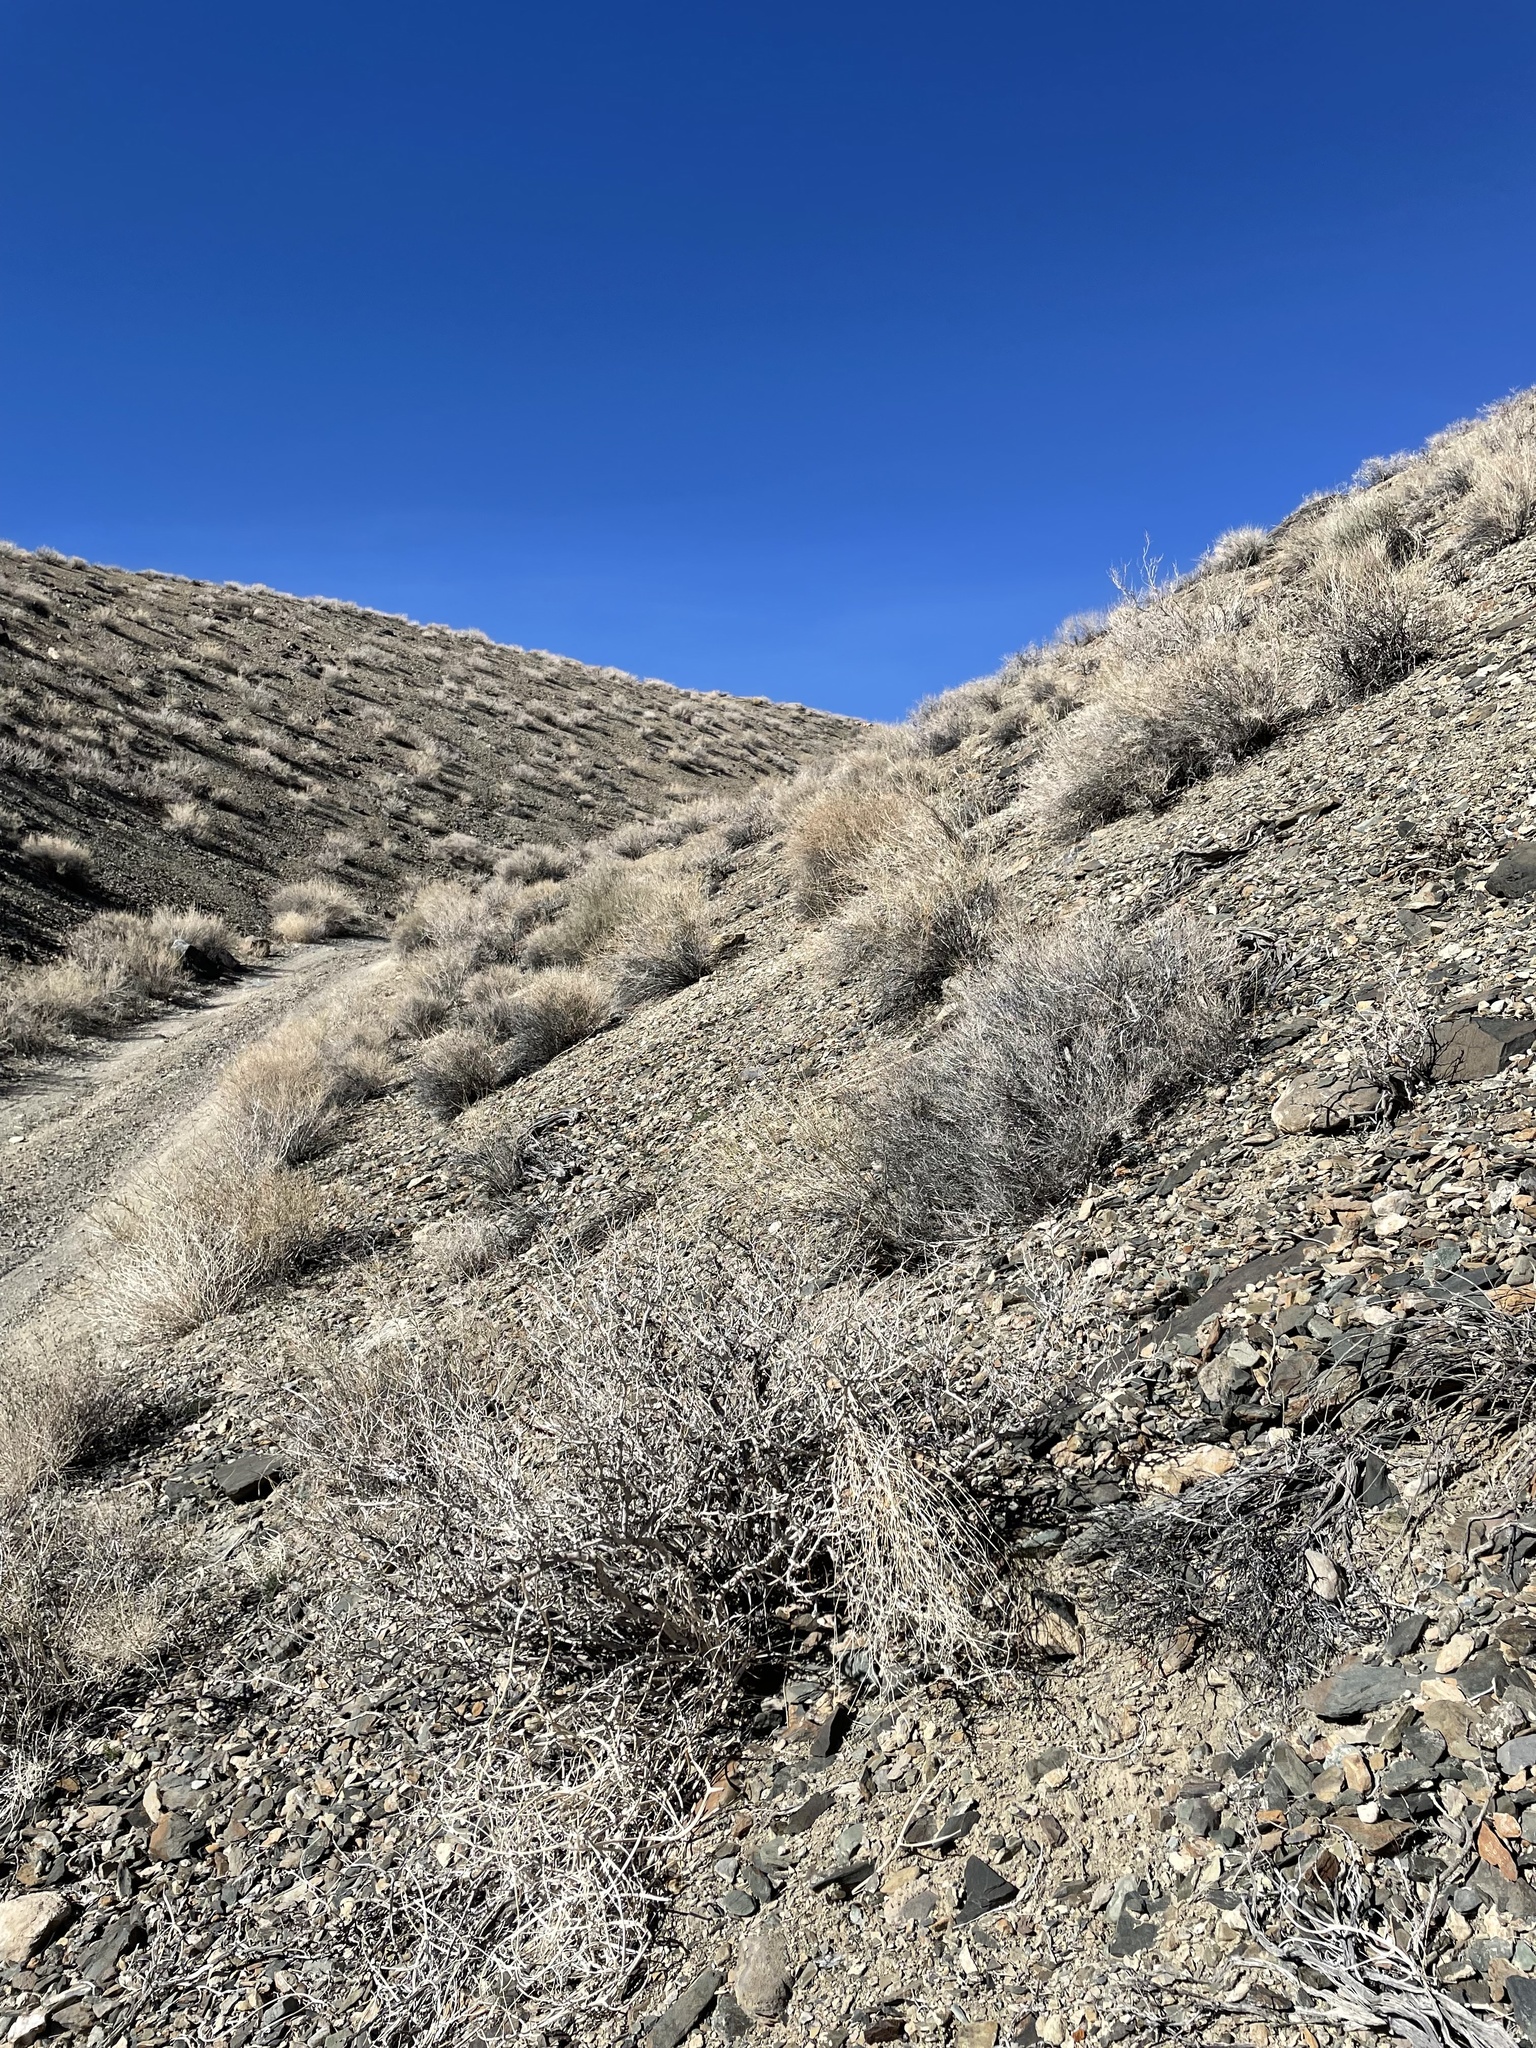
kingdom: Plantae
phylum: Tracheophyta
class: Magnoliopsida
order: Caryophyllales
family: Nyctaginaceae
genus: Mirabilis
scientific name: Mirabilis alipes
